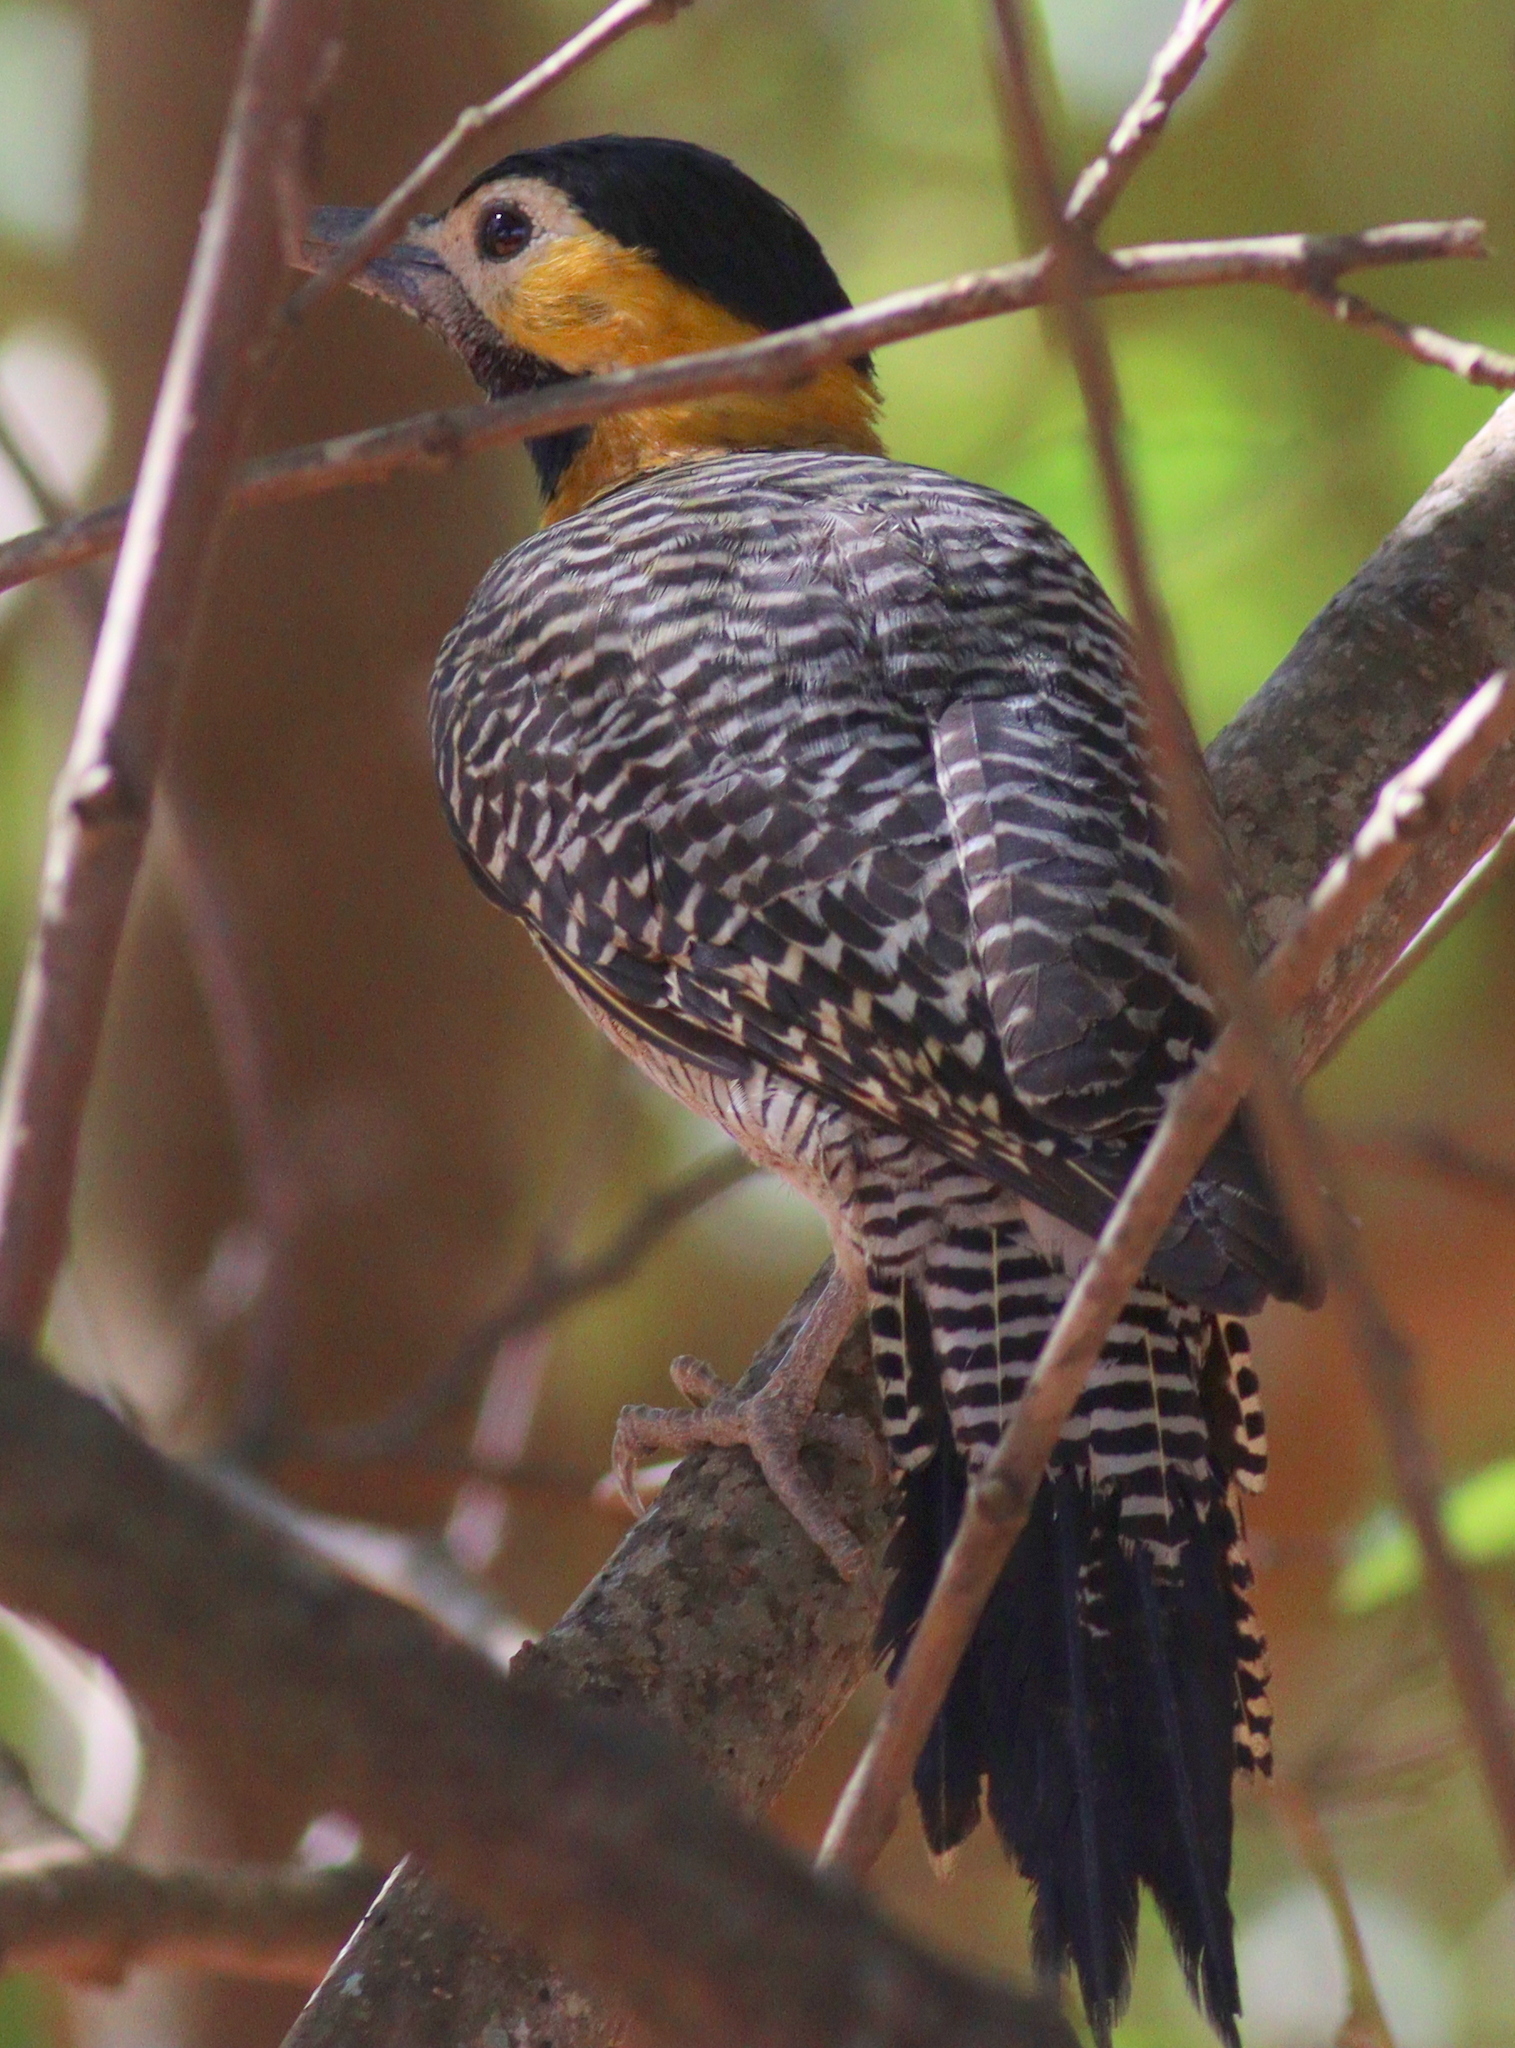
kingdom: Animalia
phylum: Chordata
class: Aves
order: Piciformes
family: Picidae
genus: Colaptes
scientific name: Colaptes campestris
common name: Campo flicker
